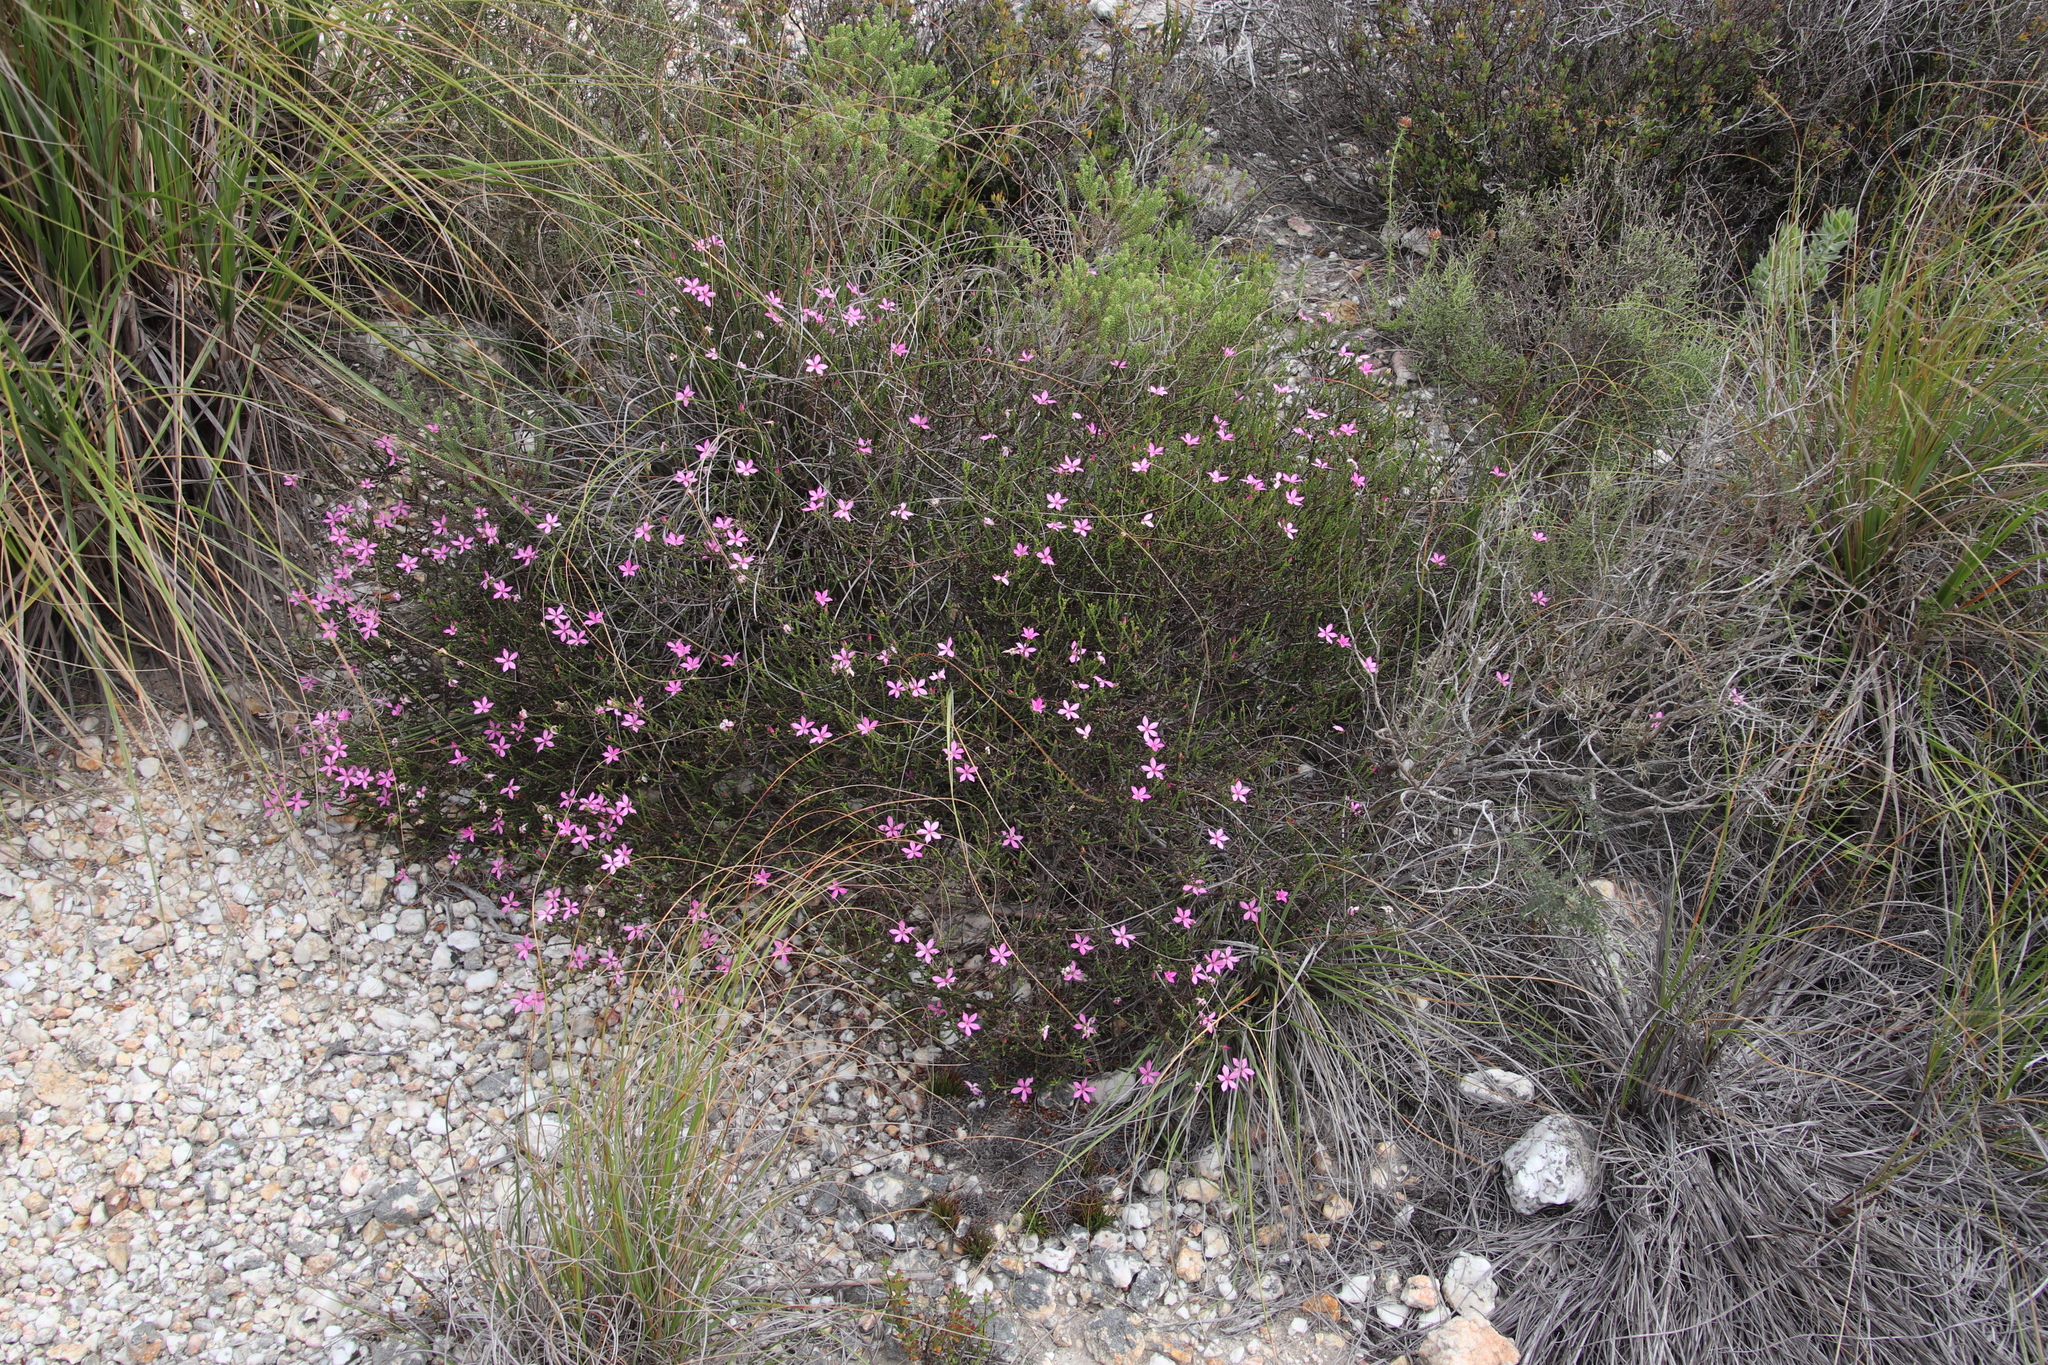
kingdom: Plantae
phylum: Tracheophyta
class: Magnoliopsida
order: Sapindales
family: Rutaceae
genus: Acmadenia
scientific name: Acmadenia macropetala
